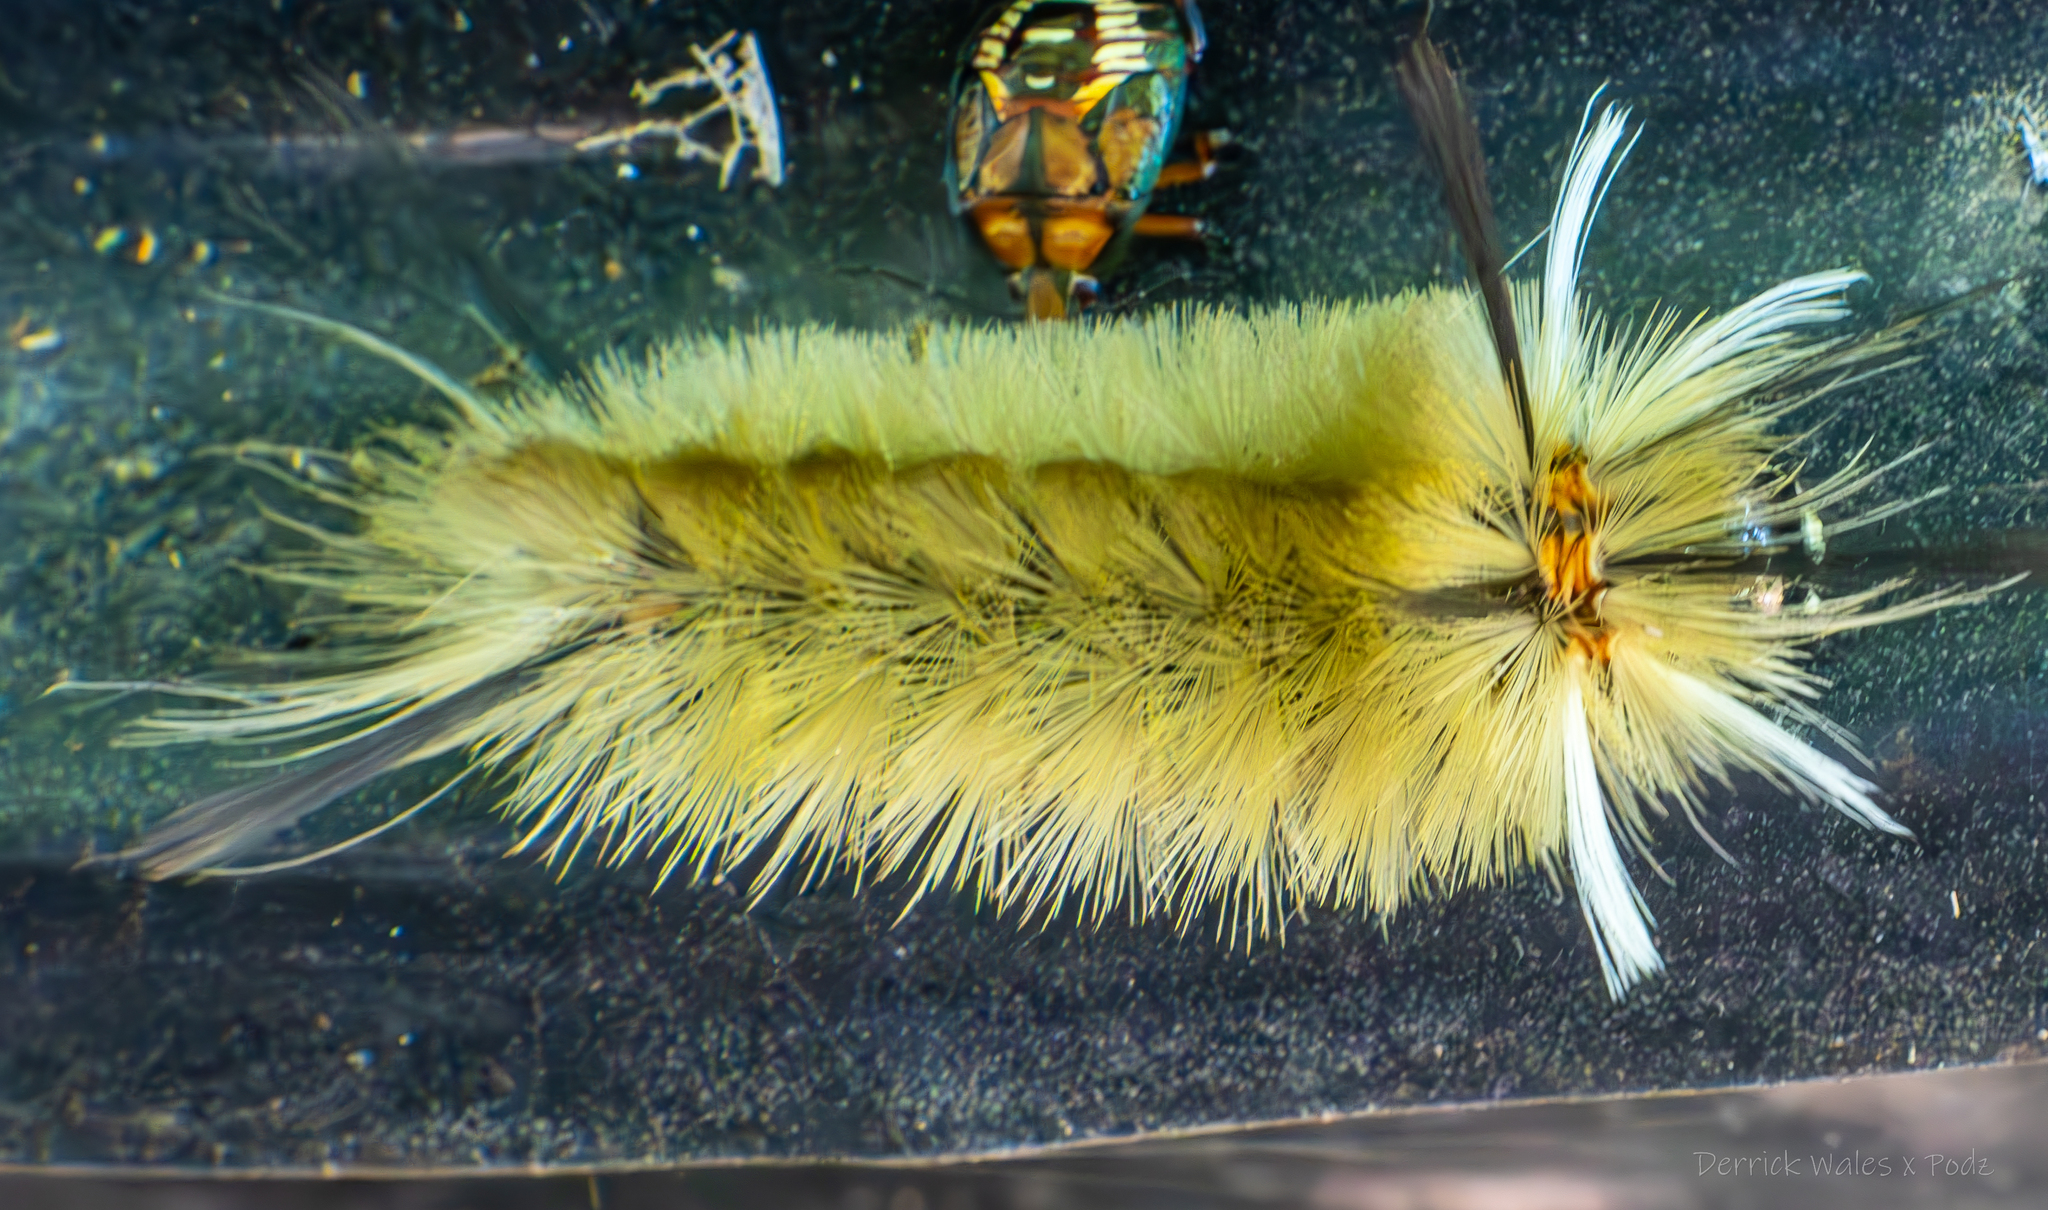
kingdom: Animalia
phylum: Arthropoda
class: Insecta
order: Lepidoptera
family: Erebidae
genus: Halysidota
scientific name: Halysidota tessellaris
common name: Banded tussock moth
